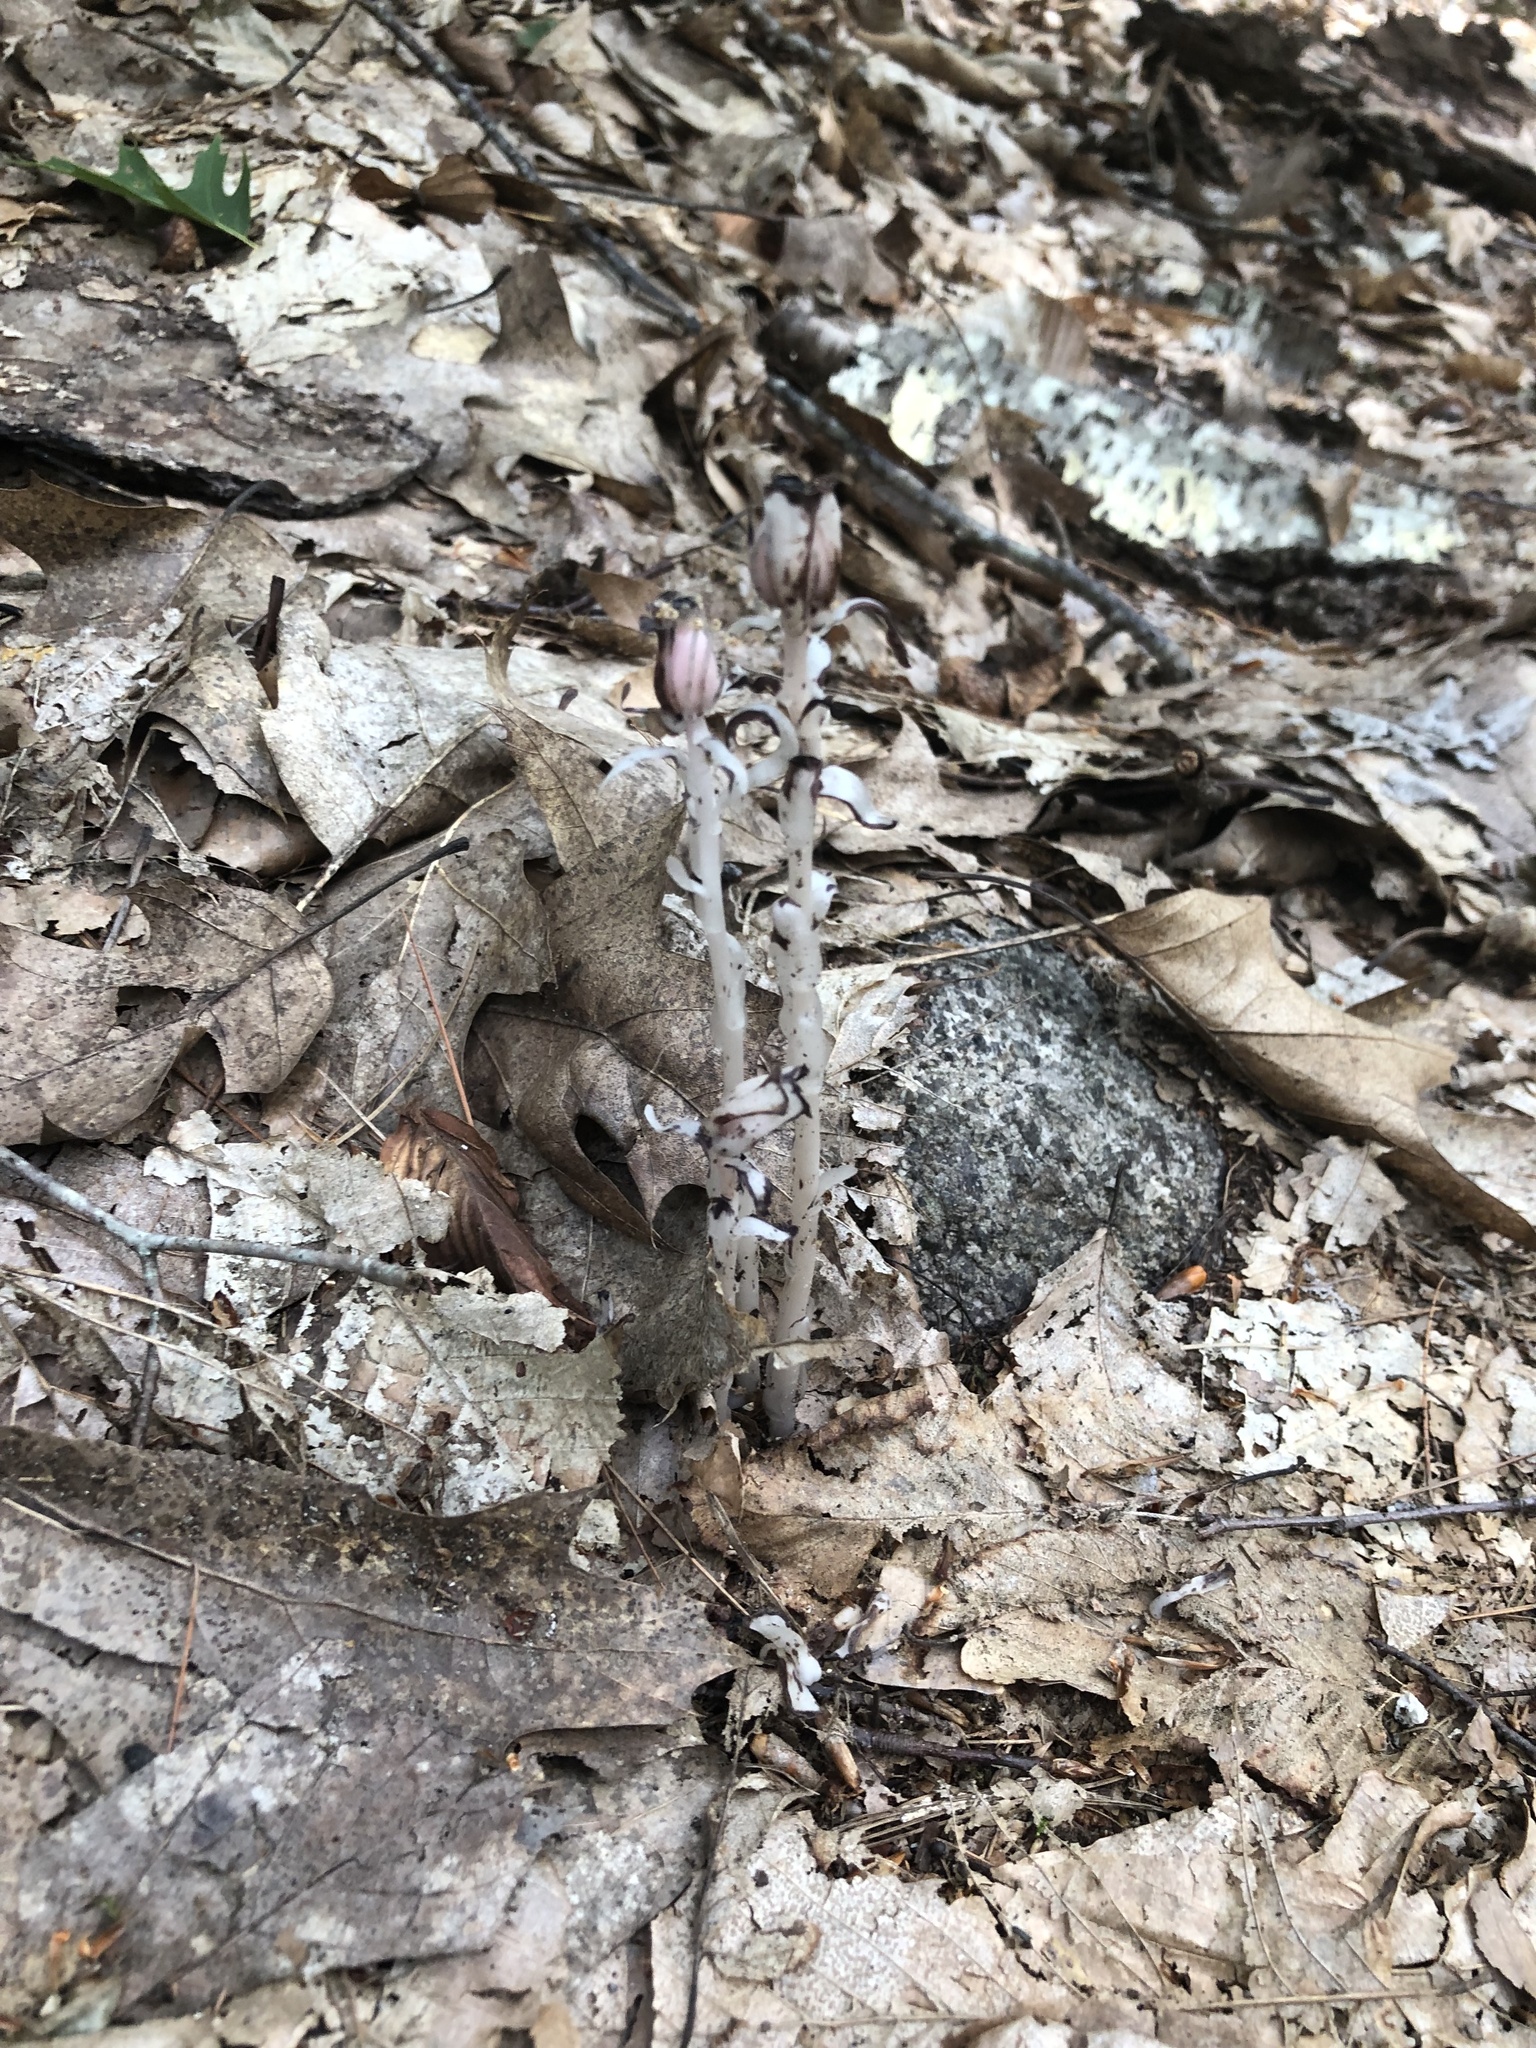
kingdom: Plantae
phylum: Tracheophyta
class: Magnoliopsida
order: Ericales
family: Ericaceae
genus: Monotropa
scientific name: Monotropa uniflora
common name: Convulsion root
